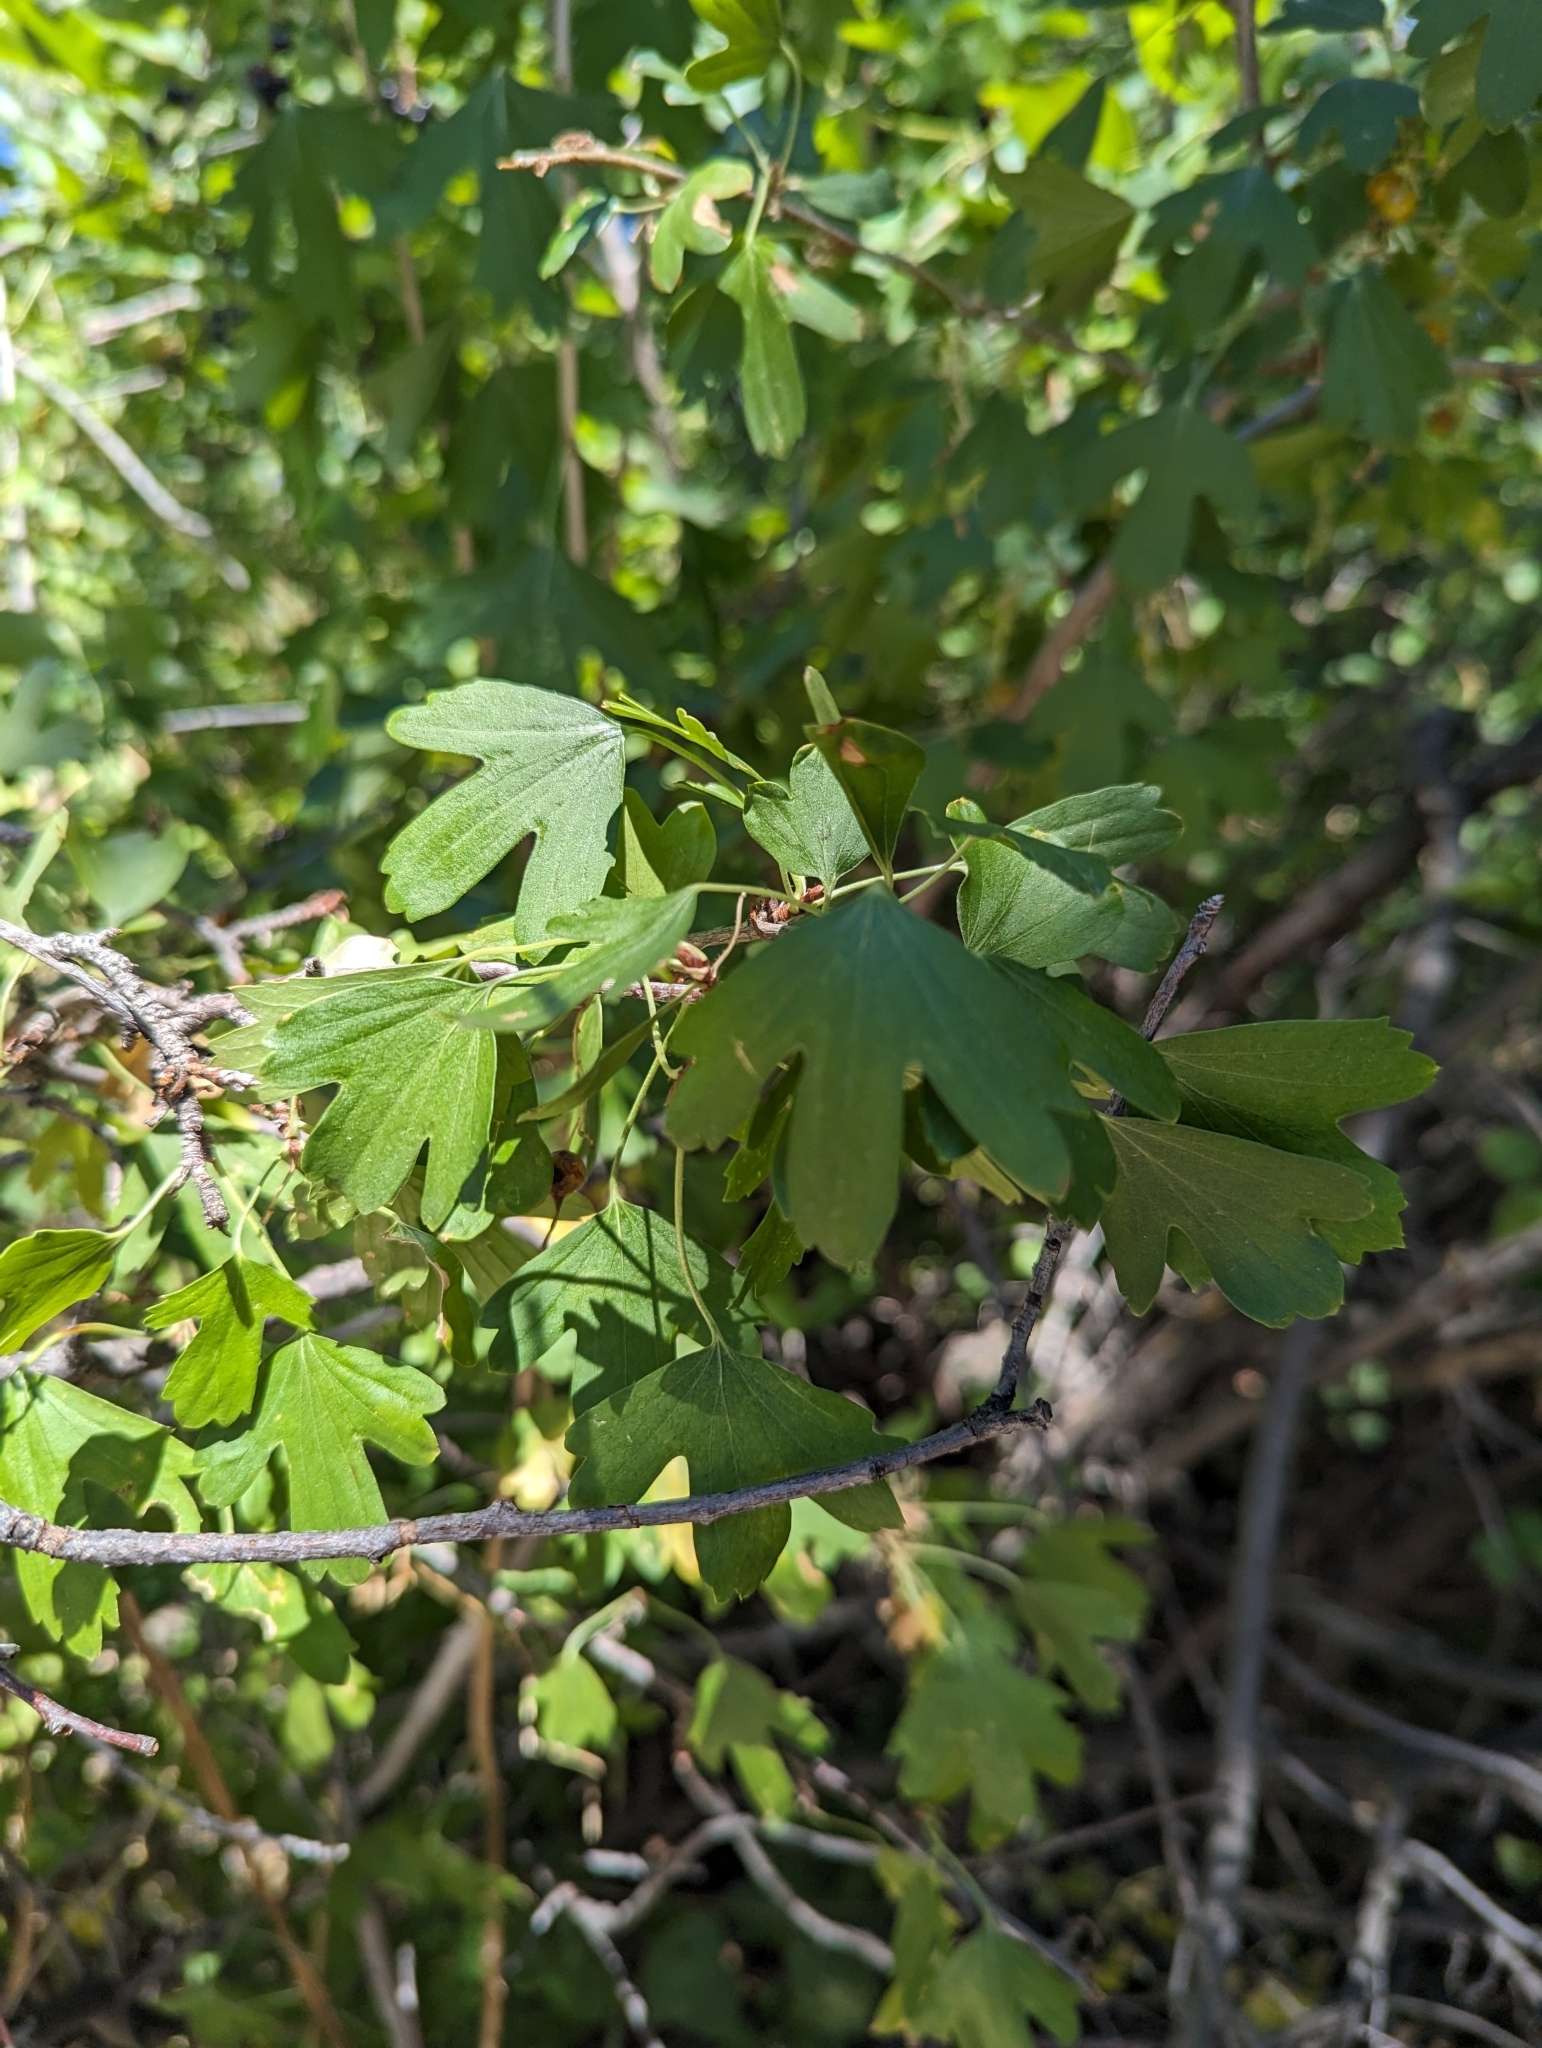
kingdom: Plantae
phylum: Tracheophyta
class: Magnoliopsida
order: Saxifragales
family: Grossulariaceae
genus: Ribes
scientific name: Ribes aureum
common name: Golden currant
